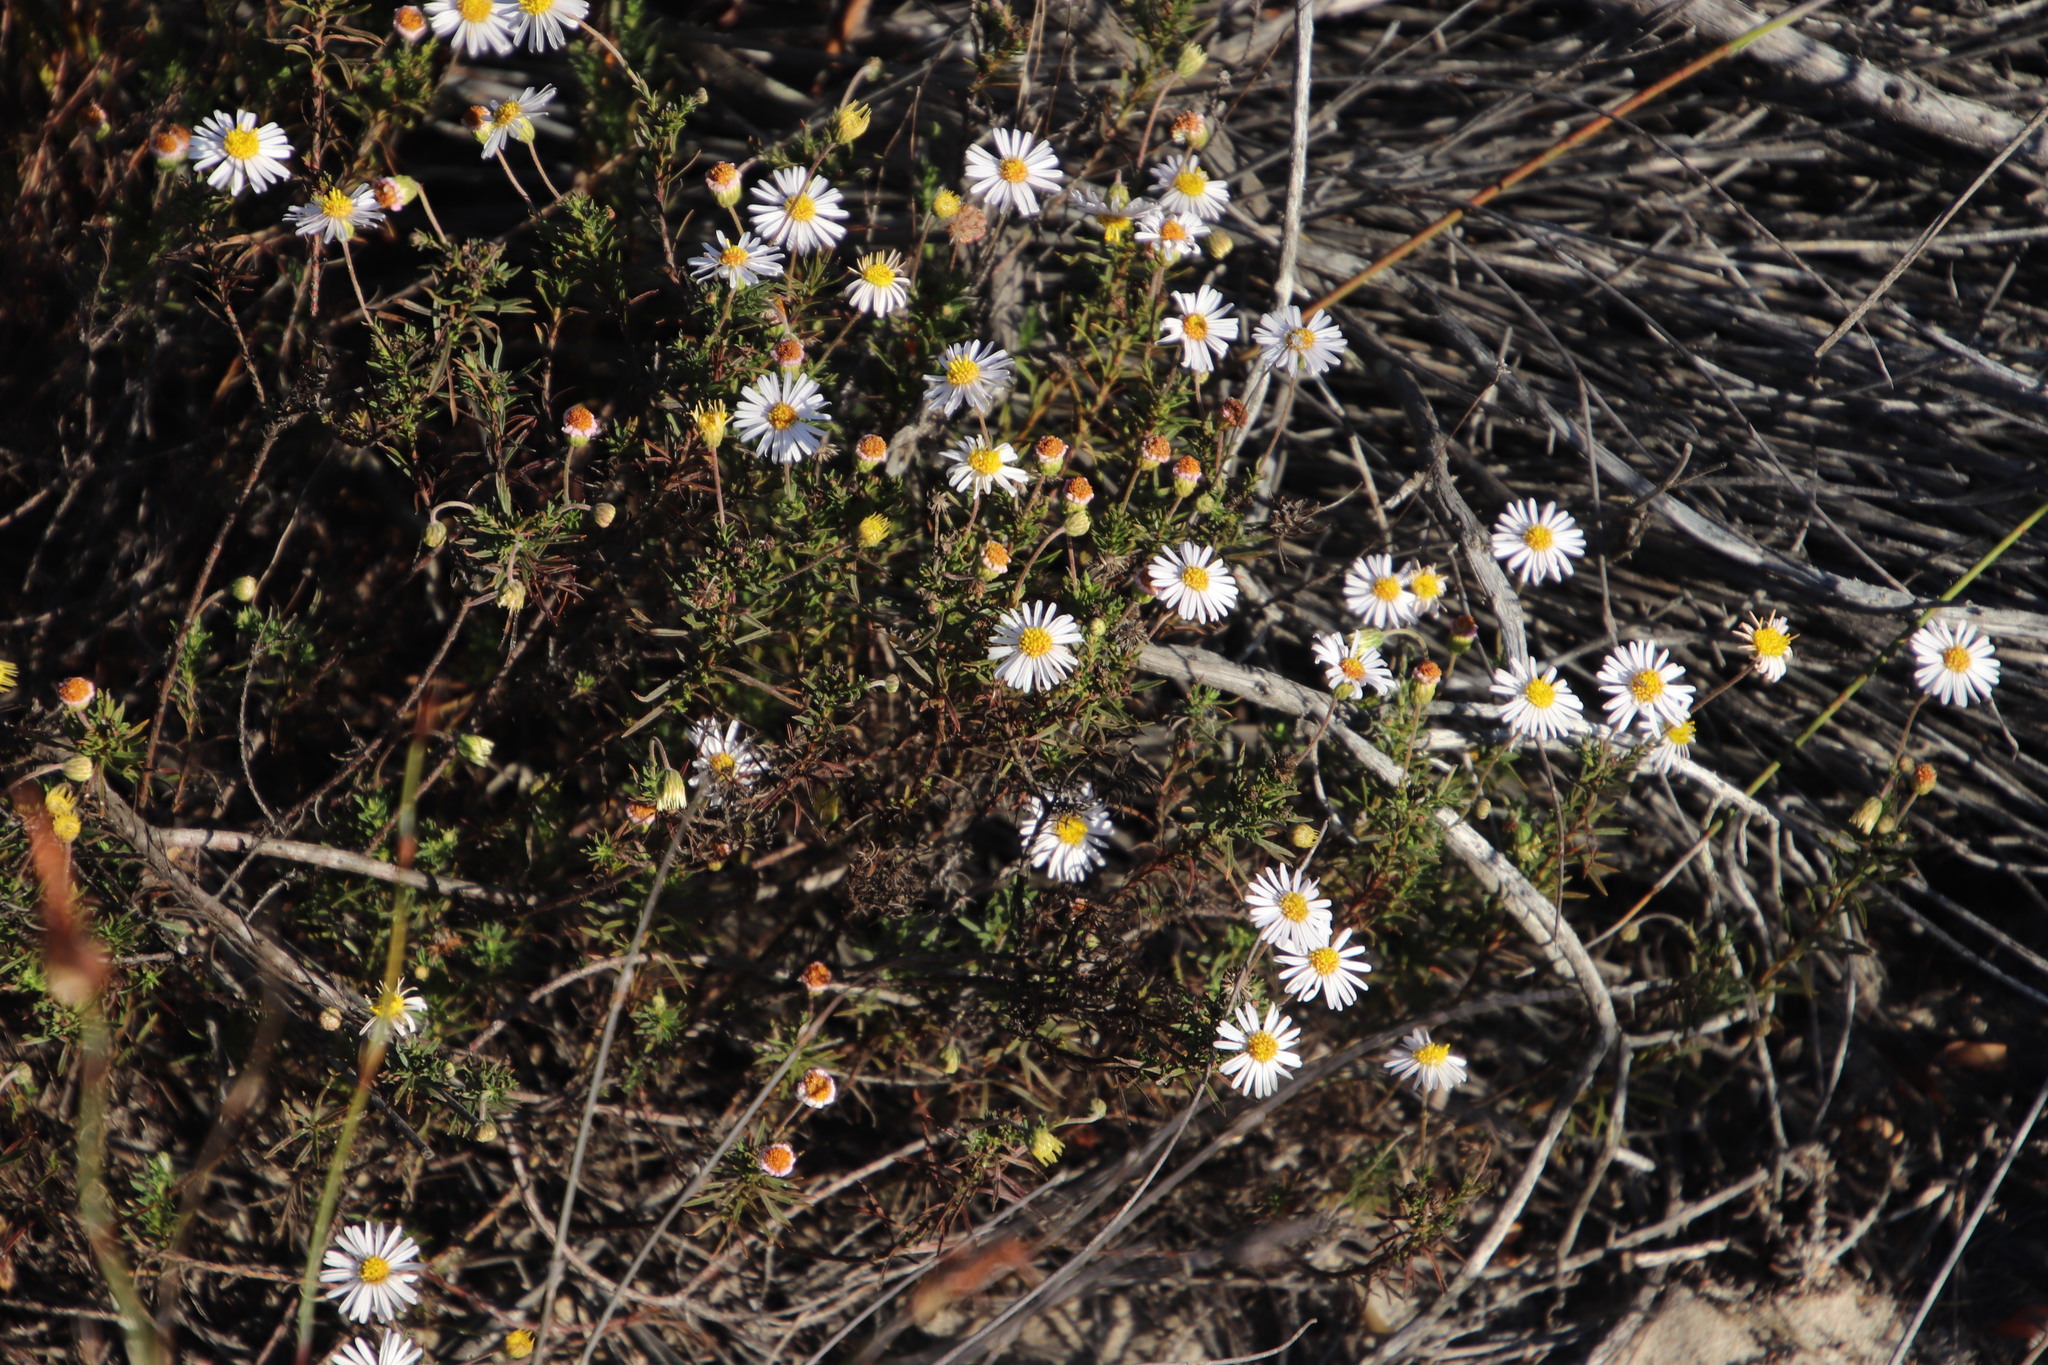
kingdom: Plantae
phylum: Tracheophyta
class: Magnoliopsida
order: Asterales
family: Asteraceae
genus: Felicia
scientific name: Felicia hyssopifolia
